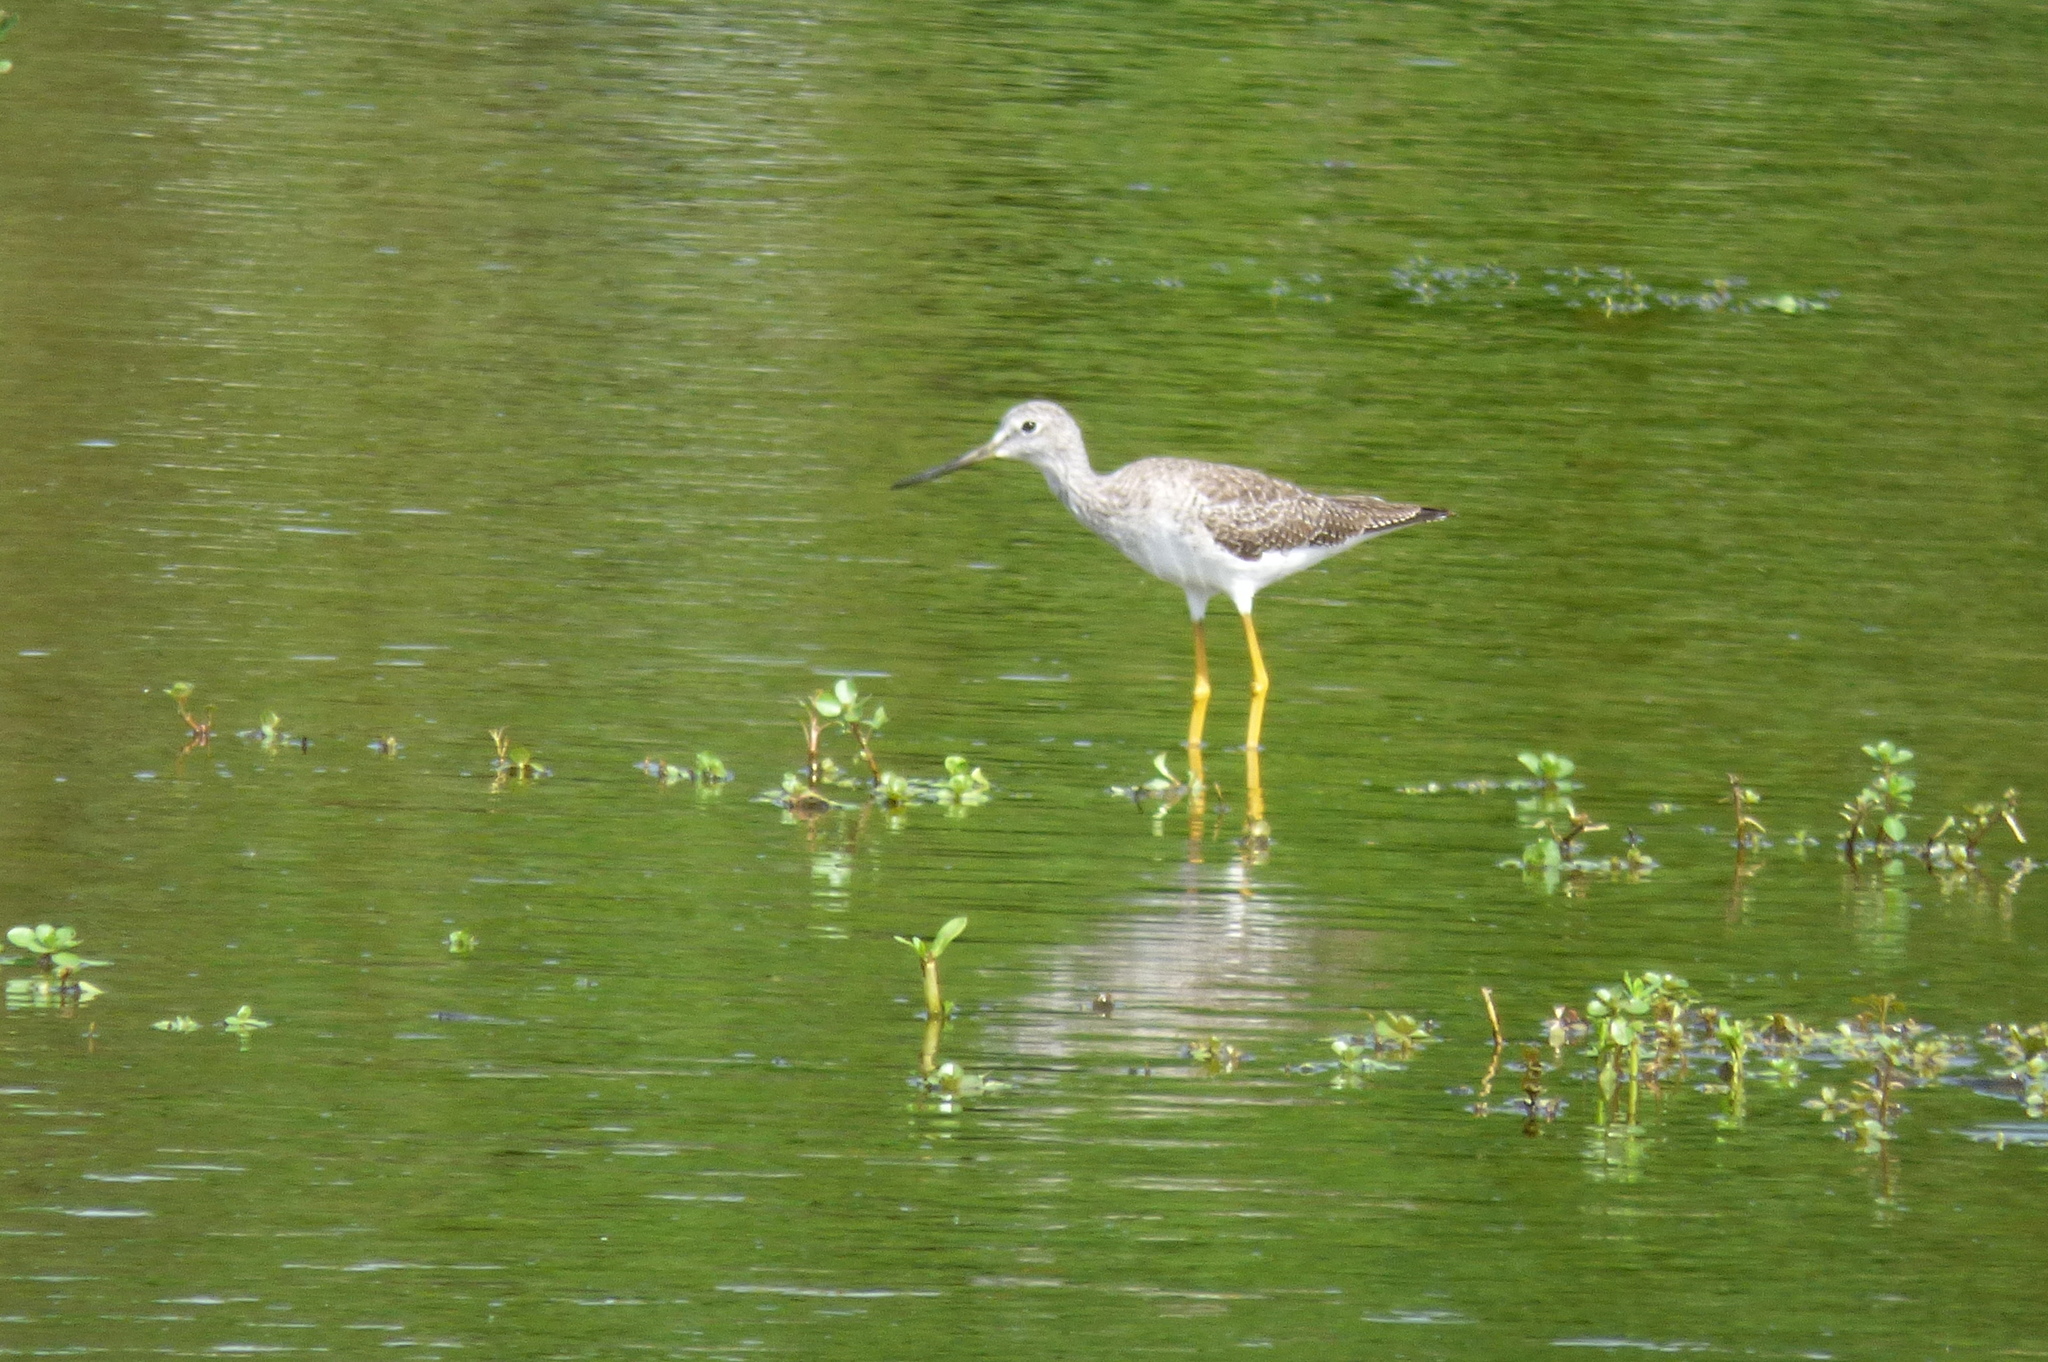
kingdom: Animalia
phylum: Chordata
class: Aves
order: Charadriiformes
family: Scolopacidae
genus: Tringa
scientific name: Tringa melanoleuca
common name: Greater yellowlegs
